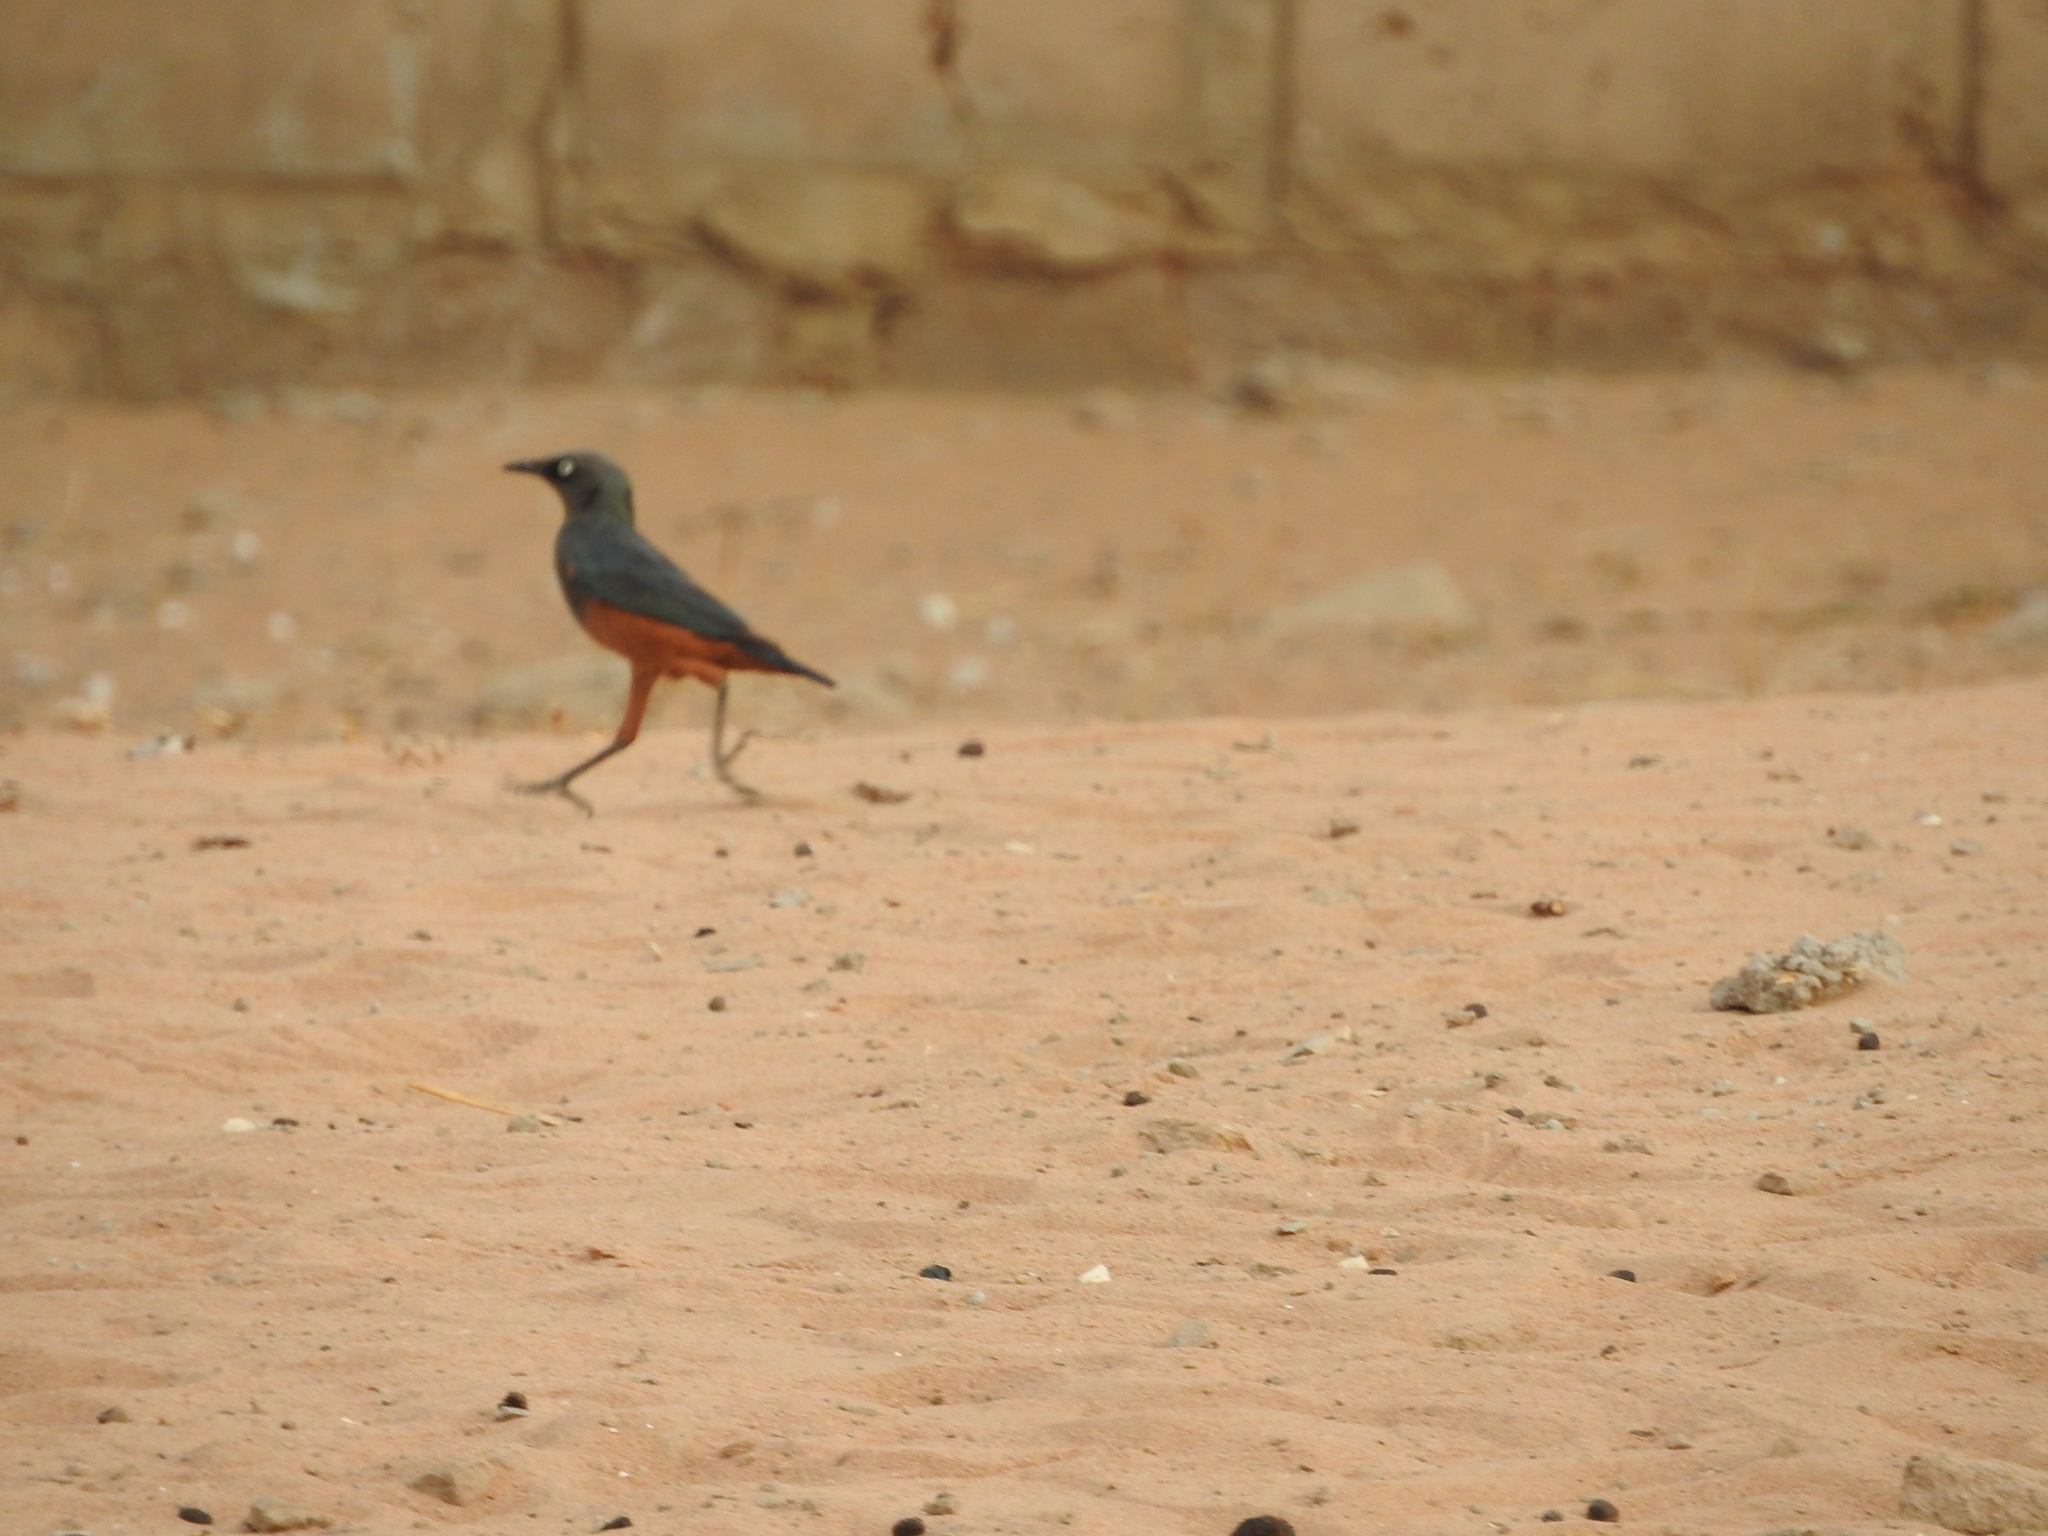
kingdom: Animalia
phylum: Chordata
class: Aves
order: Passeriformes
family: Sturnidae
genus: Lamprotornis
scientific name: Lamprotornis pulcher
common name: Chestnut-bellied starling
